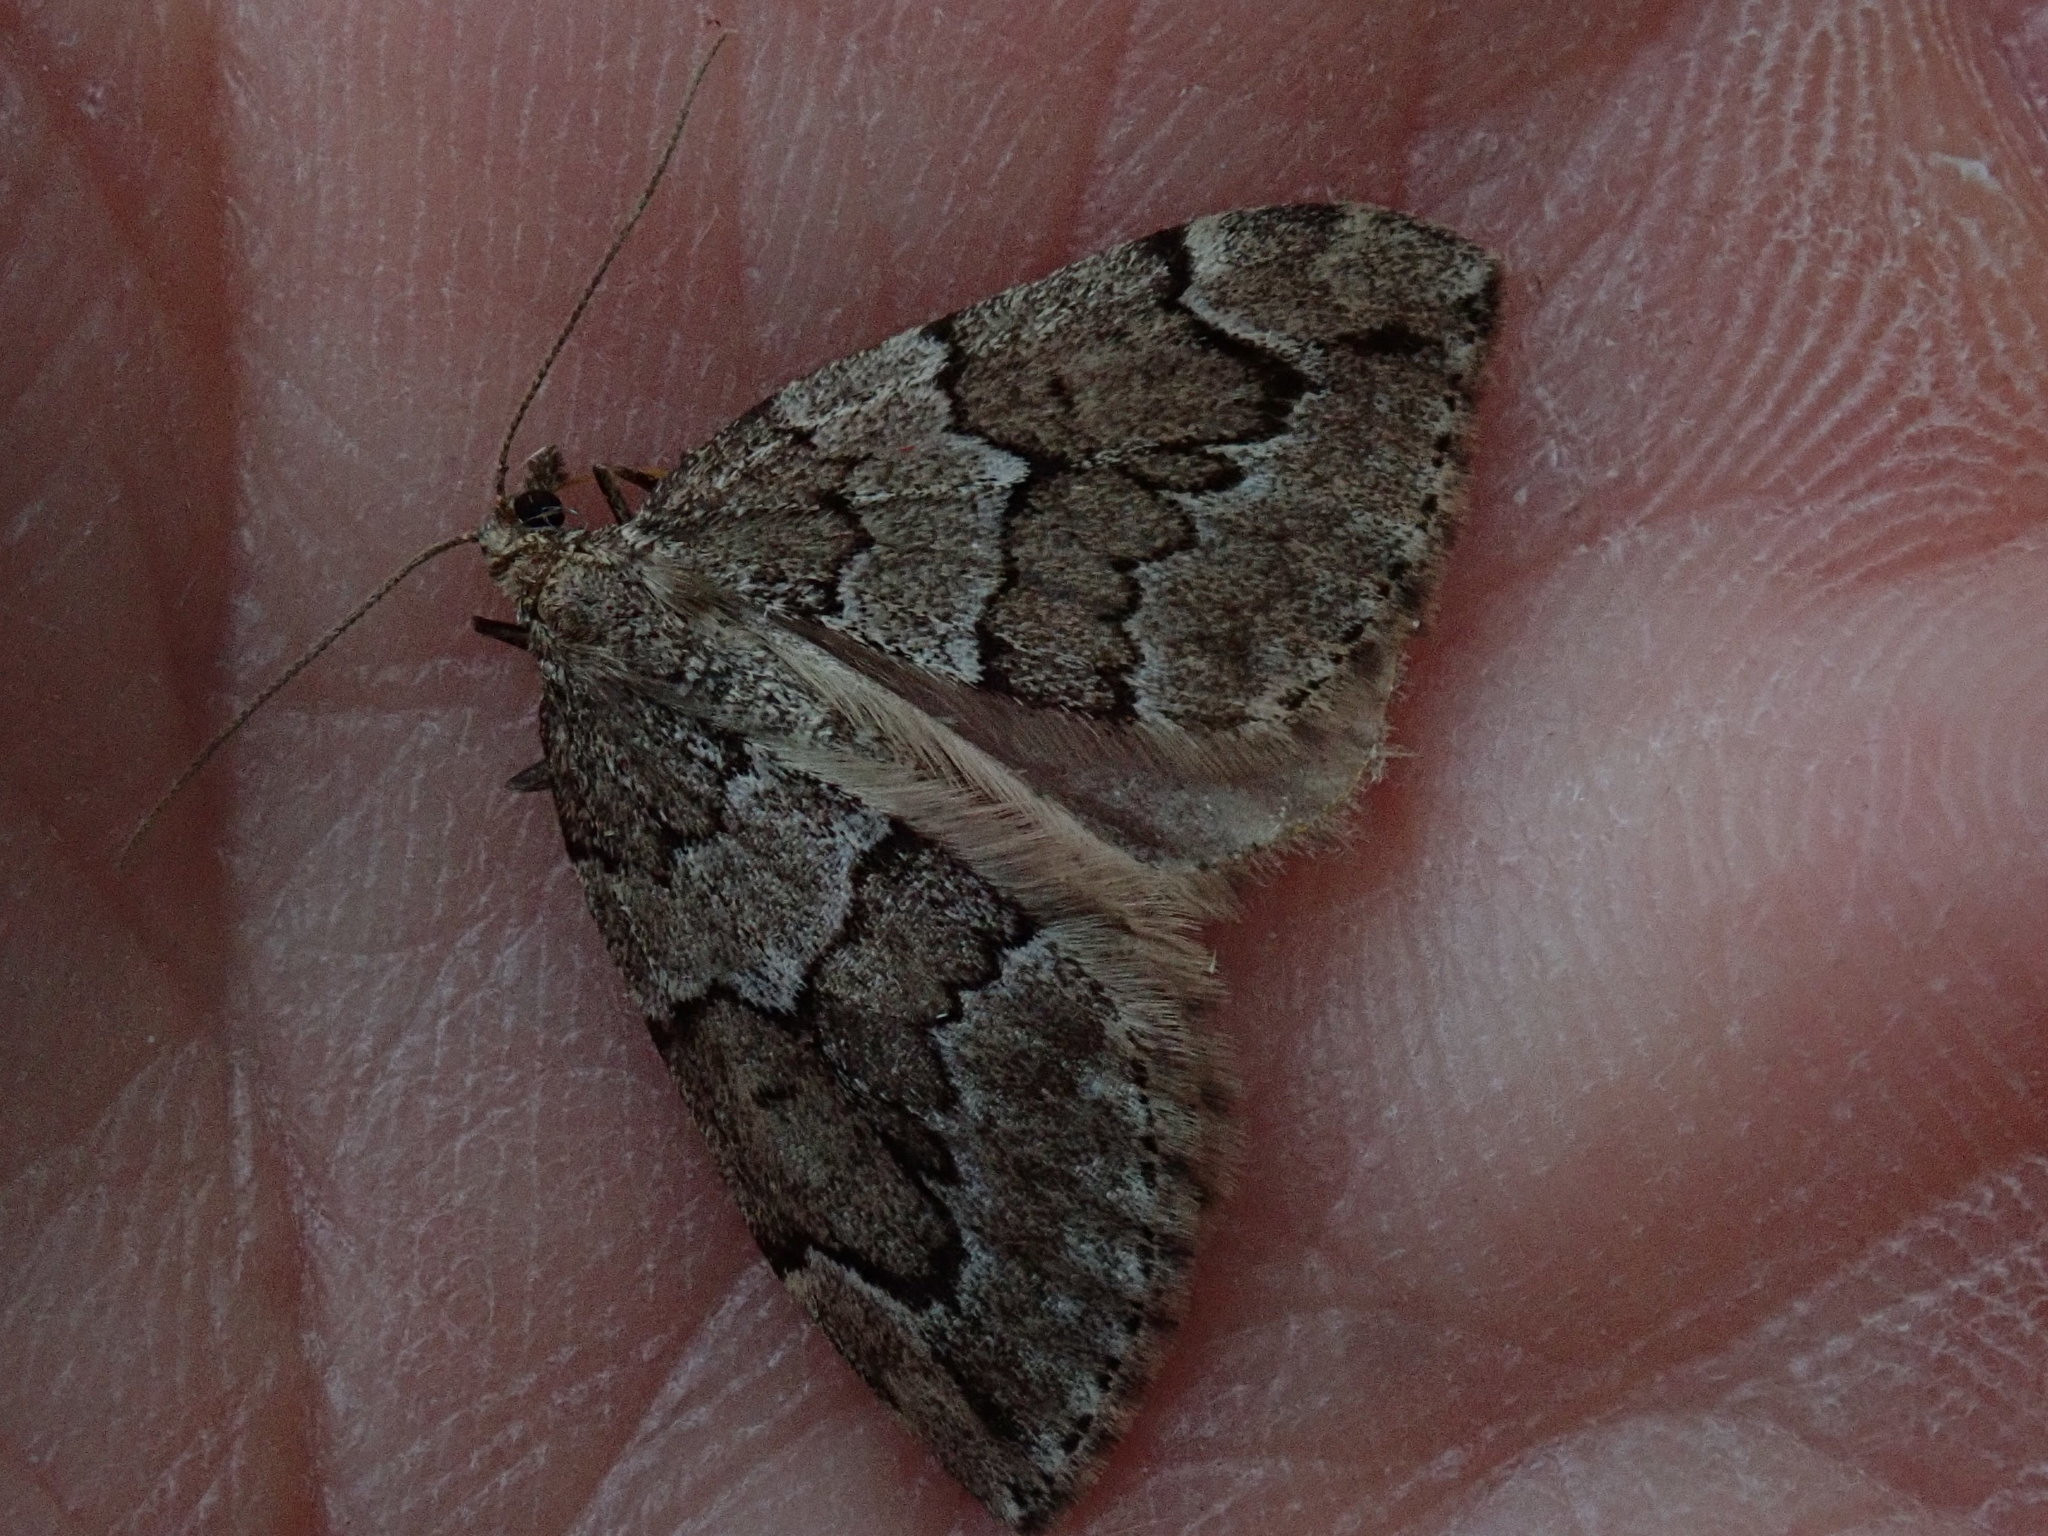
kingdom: Animalia
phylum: Arthropoda
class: Insecta
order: Lepidoptera
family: Geometridae
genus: Thera
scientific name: Thera juniperata
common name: Juniper carpet
